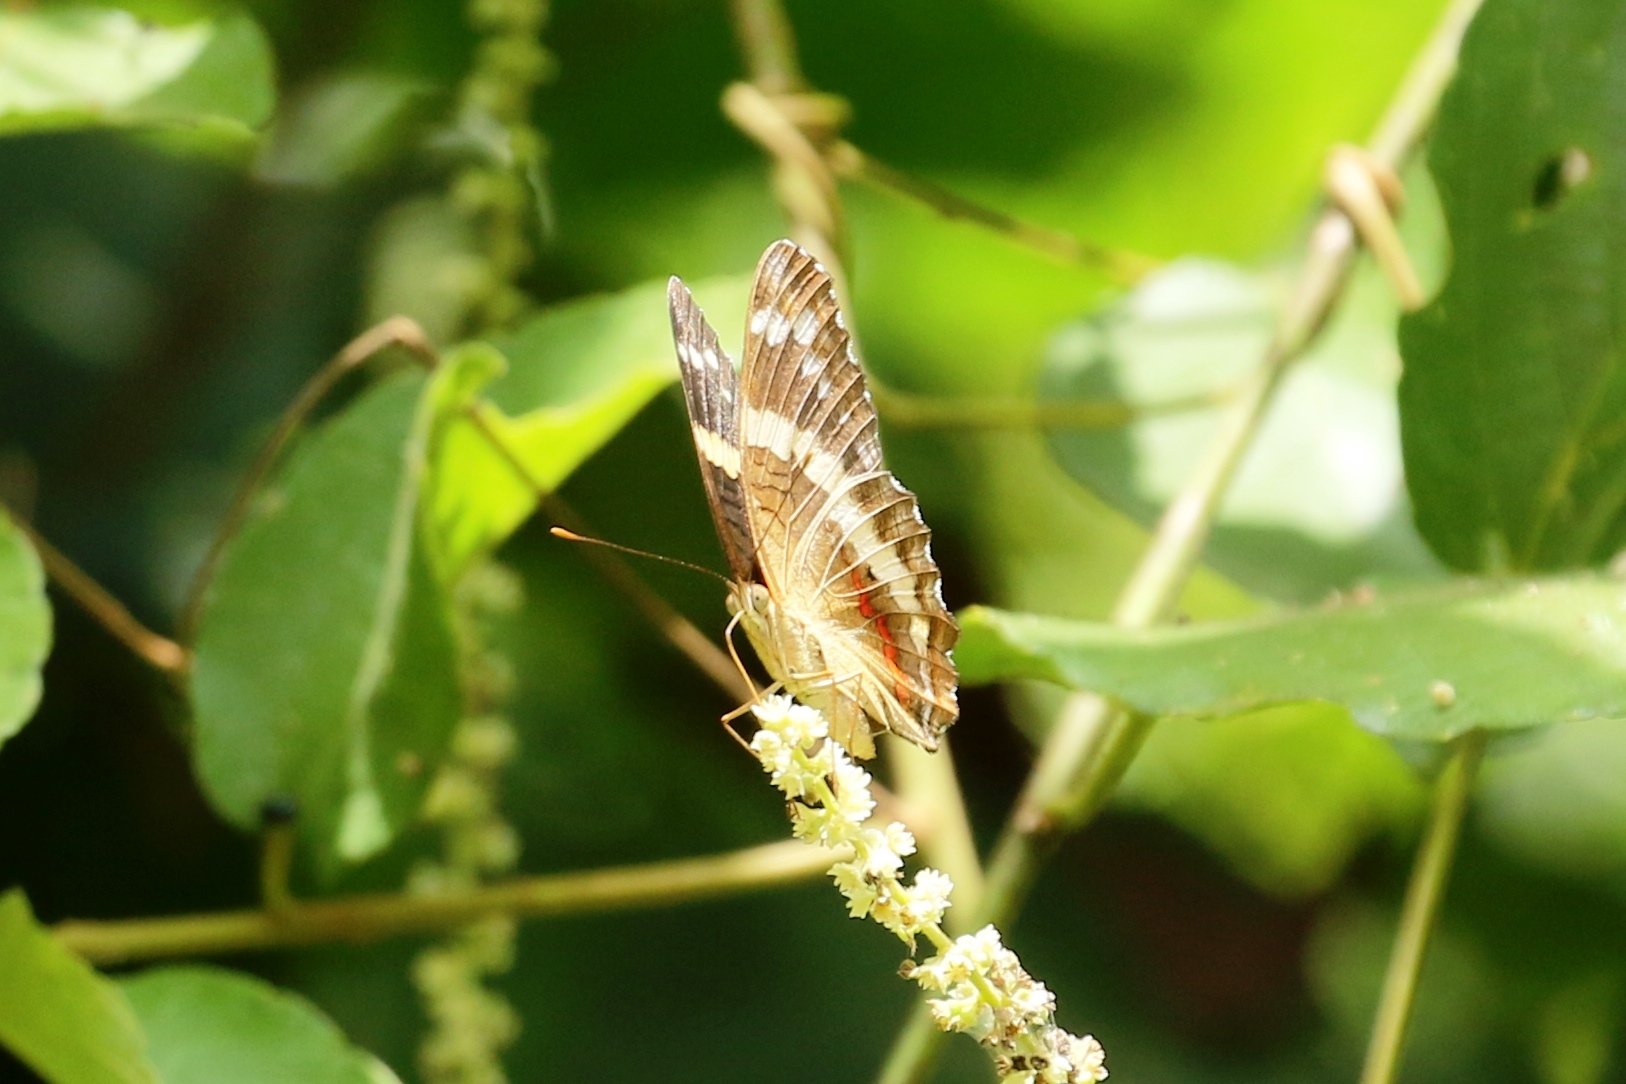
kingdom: Animalia
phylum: Arthropoda
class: Insecta
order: Lepidoptera
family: Nymphalidae
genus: Anartia
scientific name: Anartia jatrophae
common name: White peacock
